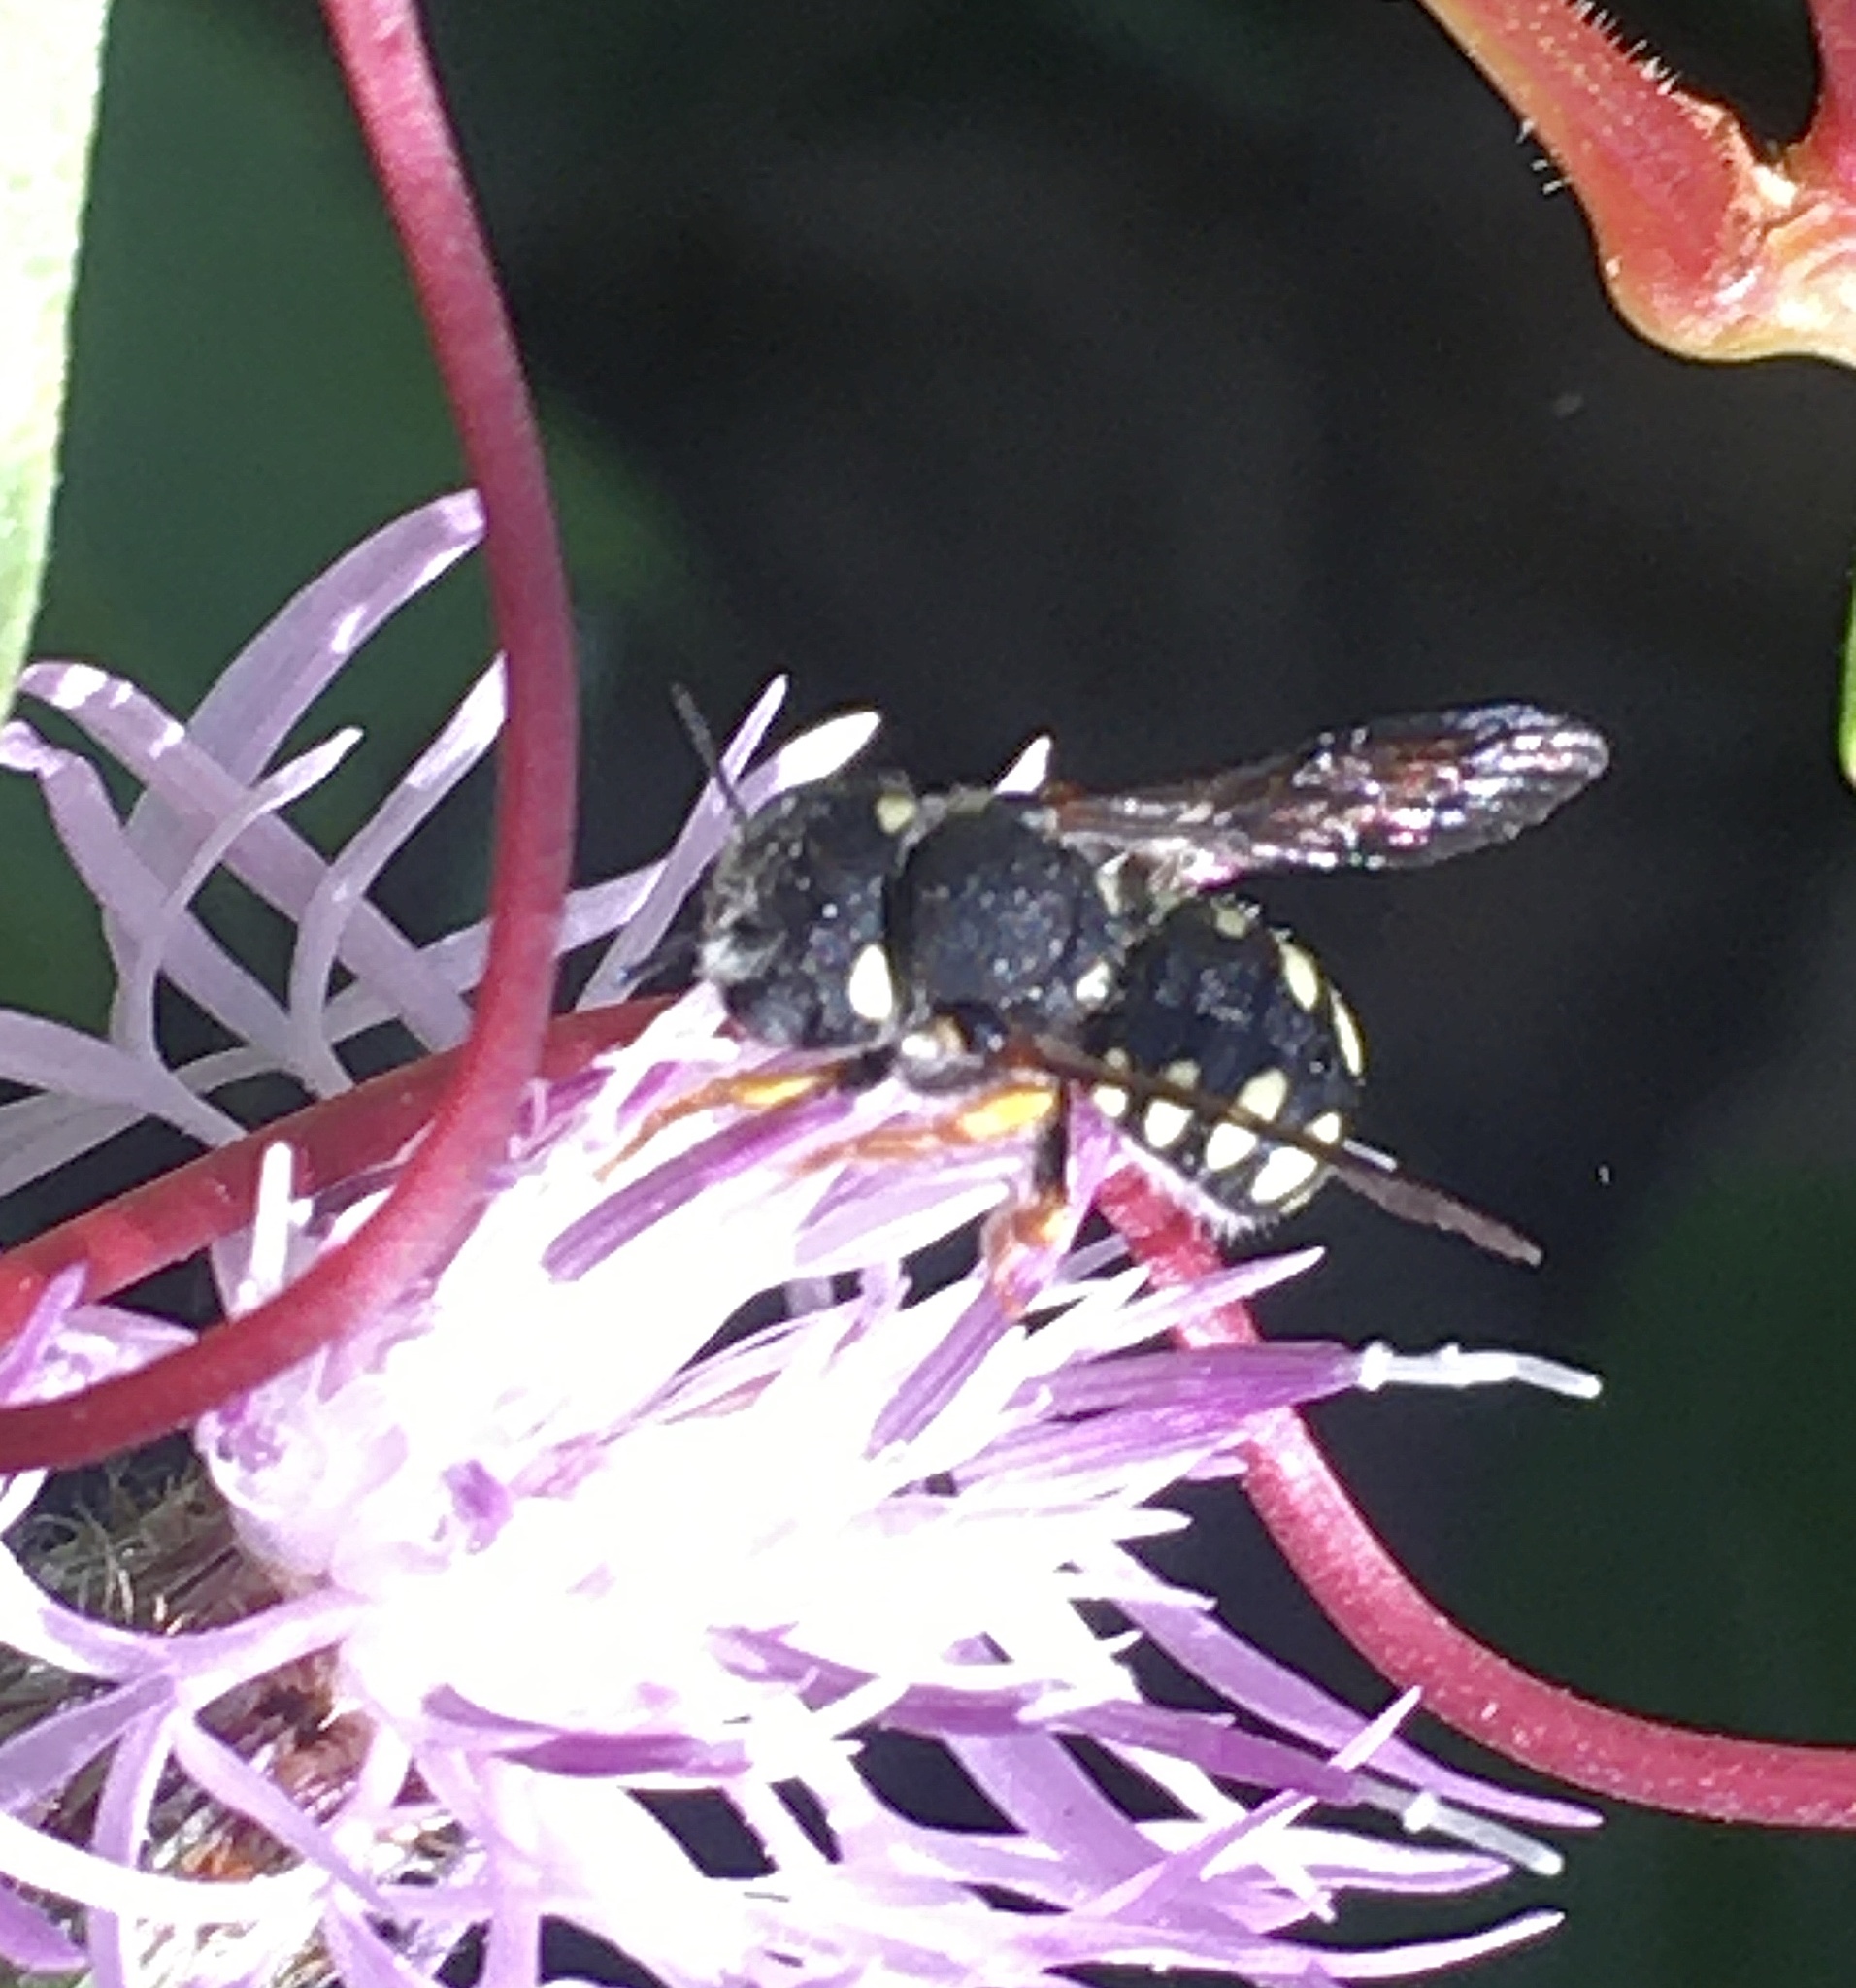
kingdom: Animalia
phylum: Arthropoda
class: Insecta
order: Hymenoptera
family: Megachilidae
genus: Pseudoanthidium
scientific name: Pseudoanthidium nanum
